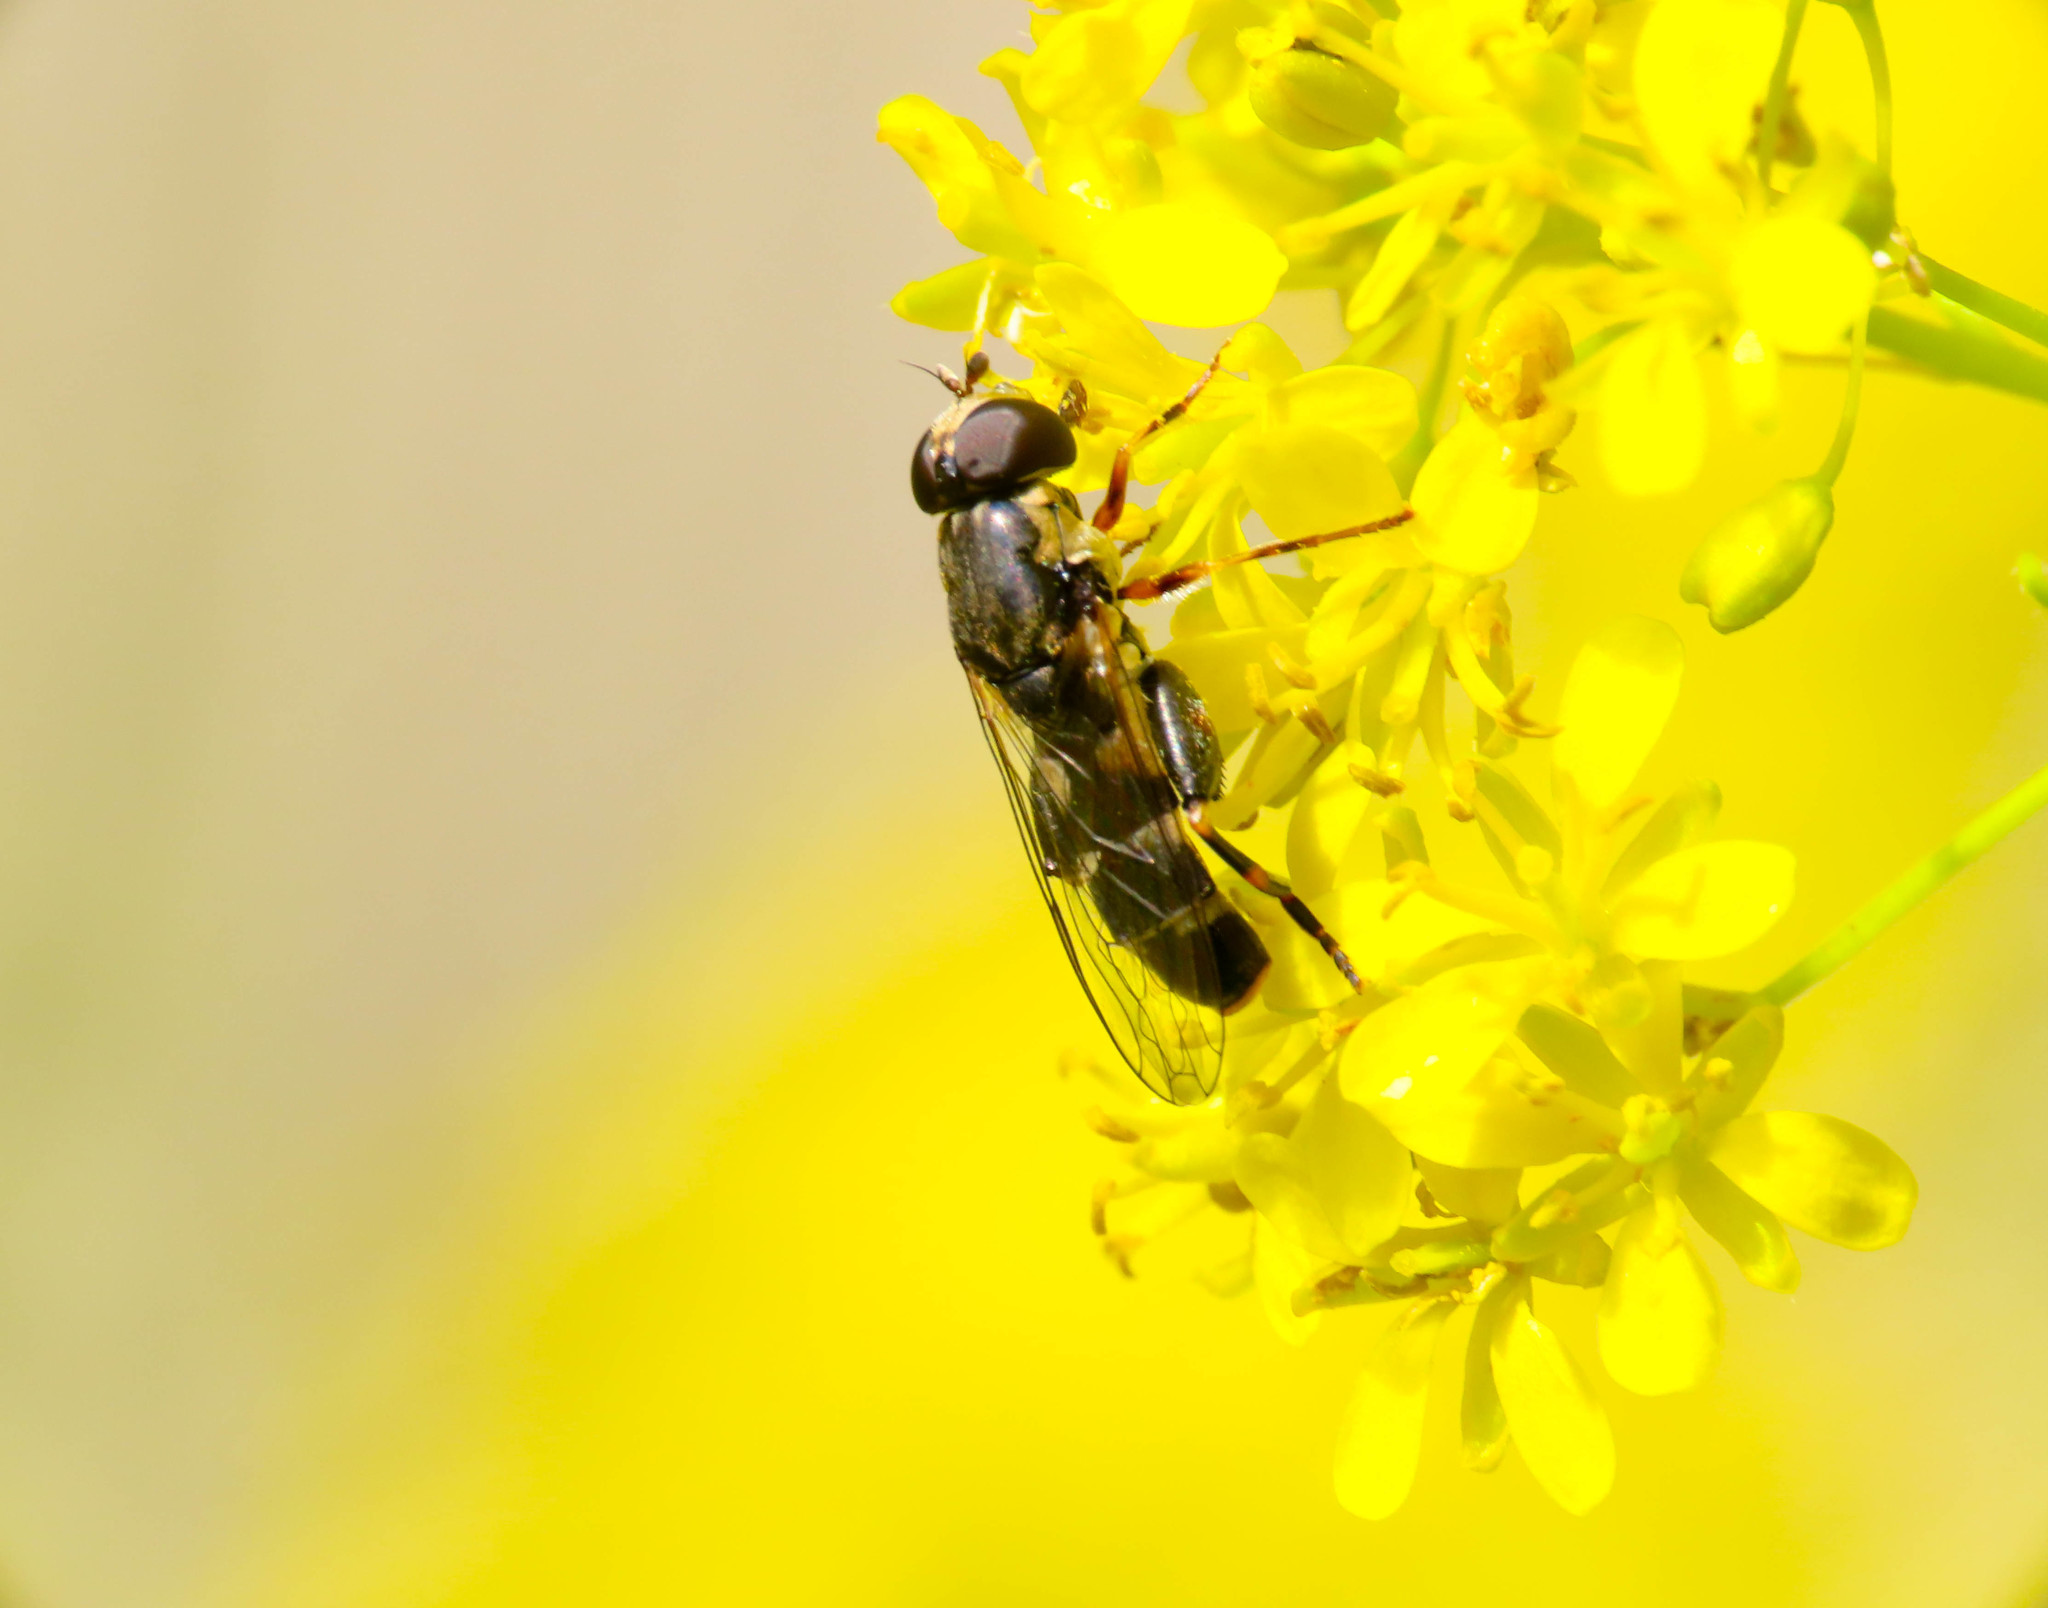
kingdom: Animalia
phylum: Arthropoda
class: Insecta
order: Diptera
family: Syrphidae
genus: Syritta
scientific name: Syritta pipiens
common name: Hover fly
